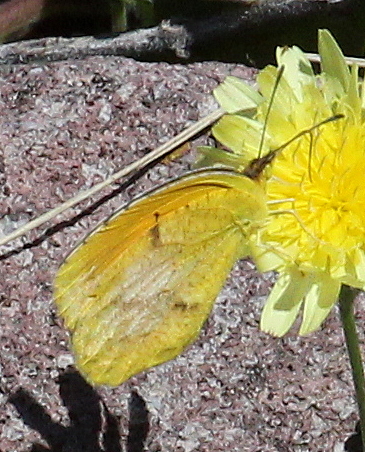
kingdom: Animalia
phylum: Arthropoda
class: Insecta
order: Lepidoptera
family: Pieridae
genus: Abaeis
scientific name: Abaeis nicippe
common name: Sleepy orange
